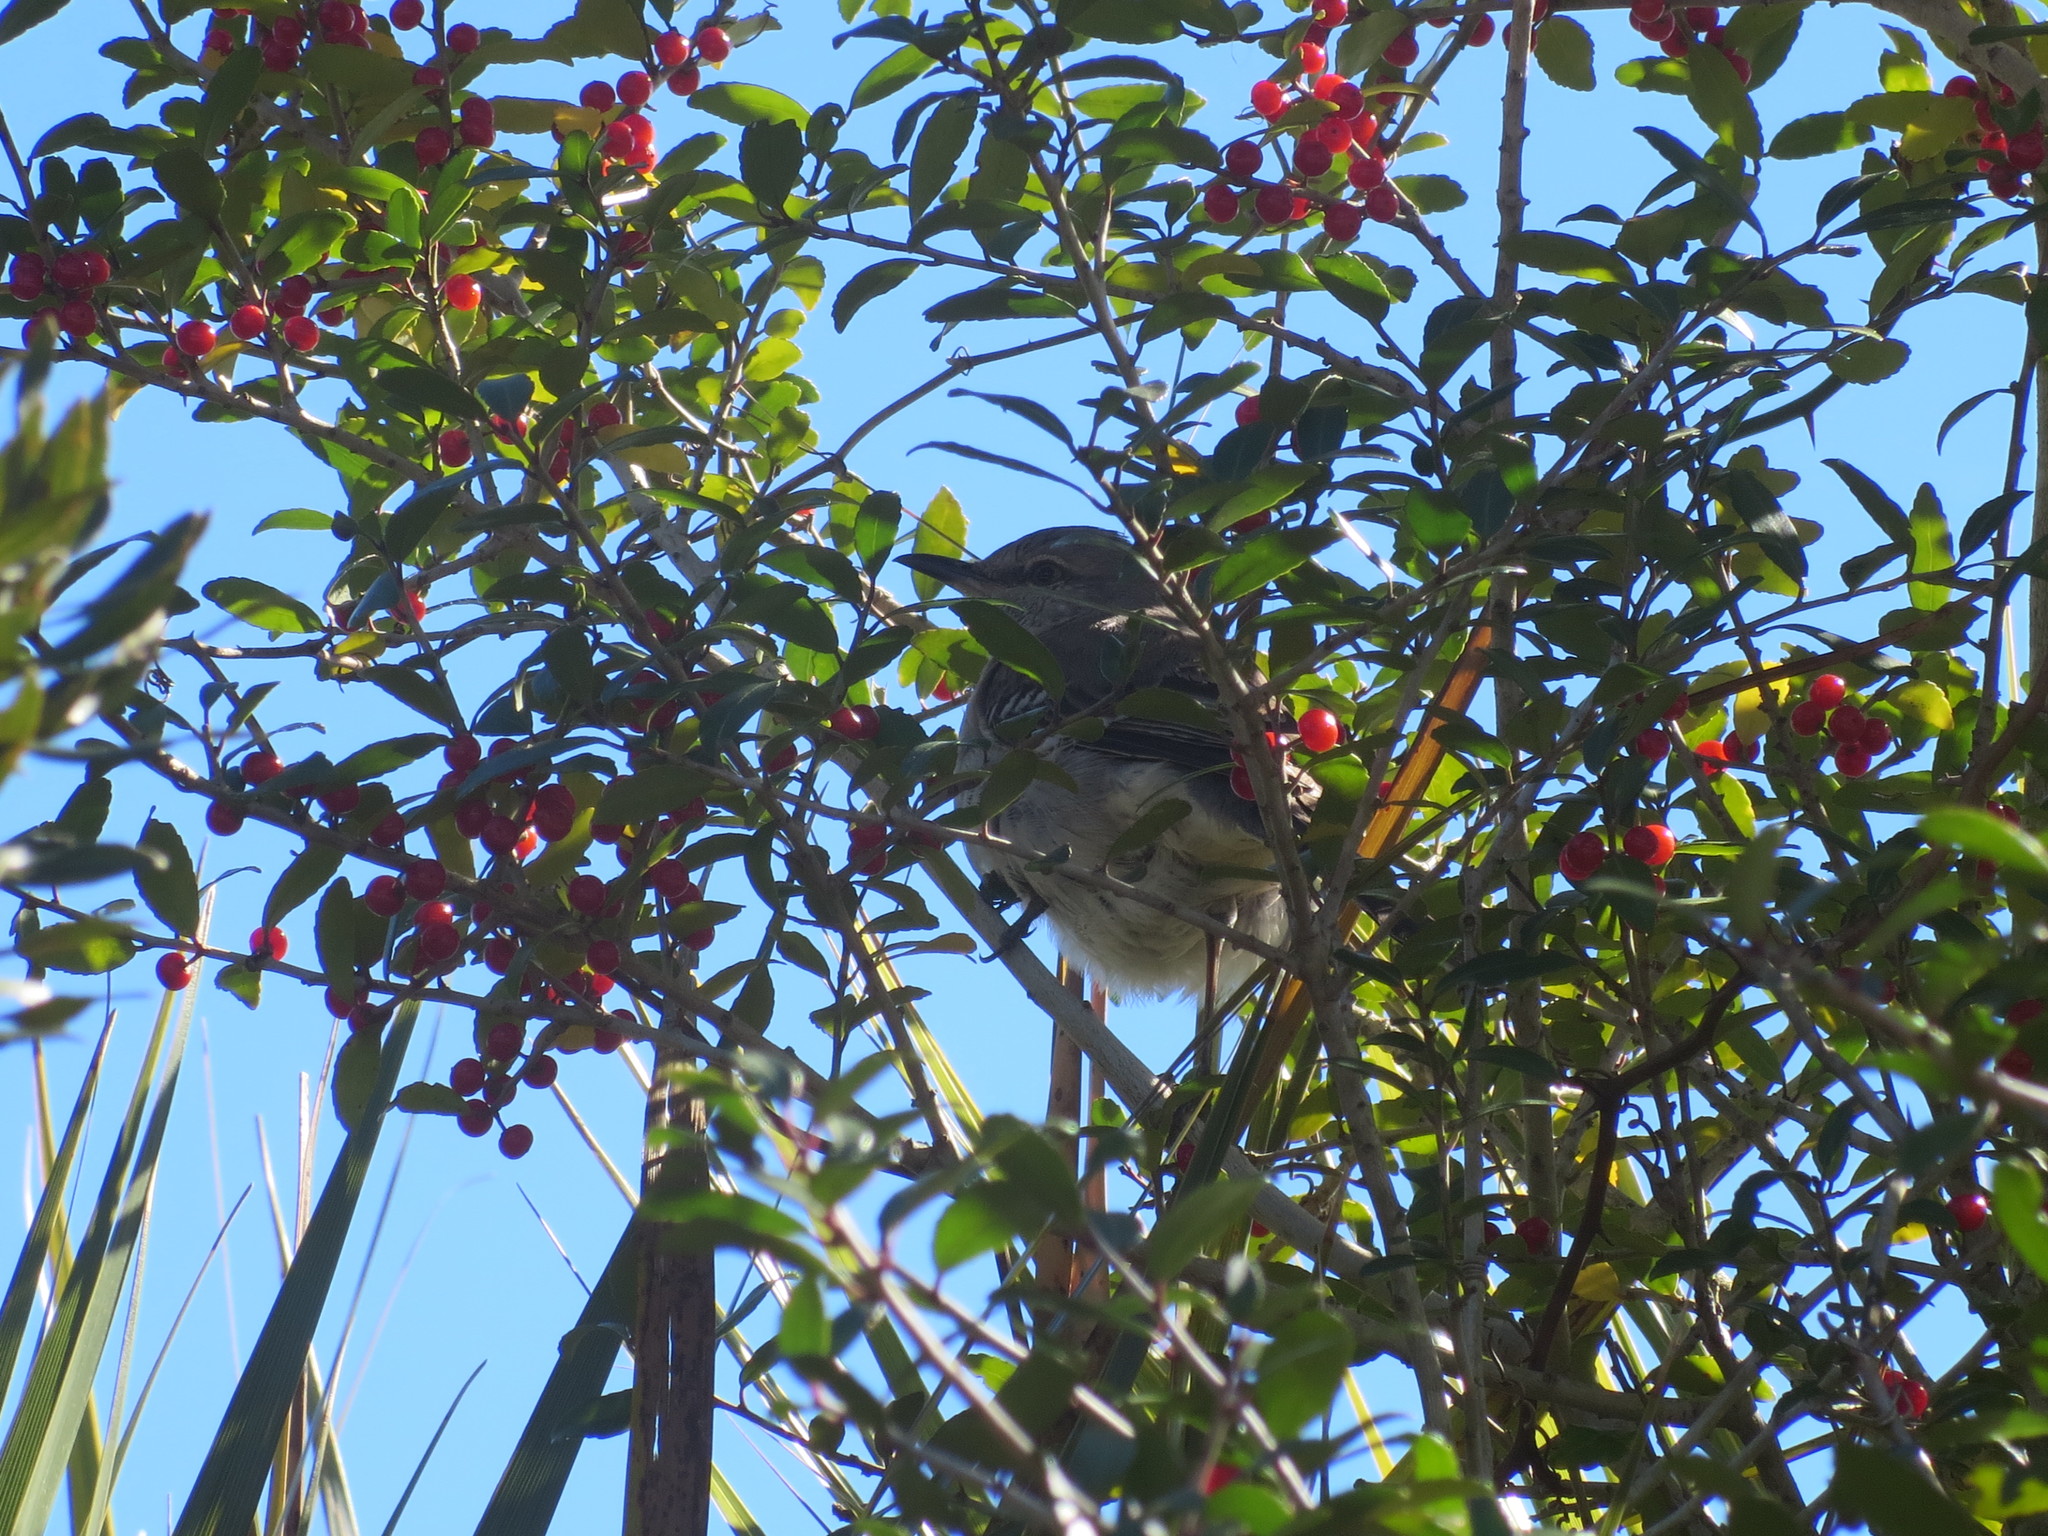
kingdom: Animalia
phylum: Chordata
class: Aves
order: Passeriformes
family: Mimidae
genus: Mimus
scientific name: Mimus polyglottos
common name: Northern mockingbird
